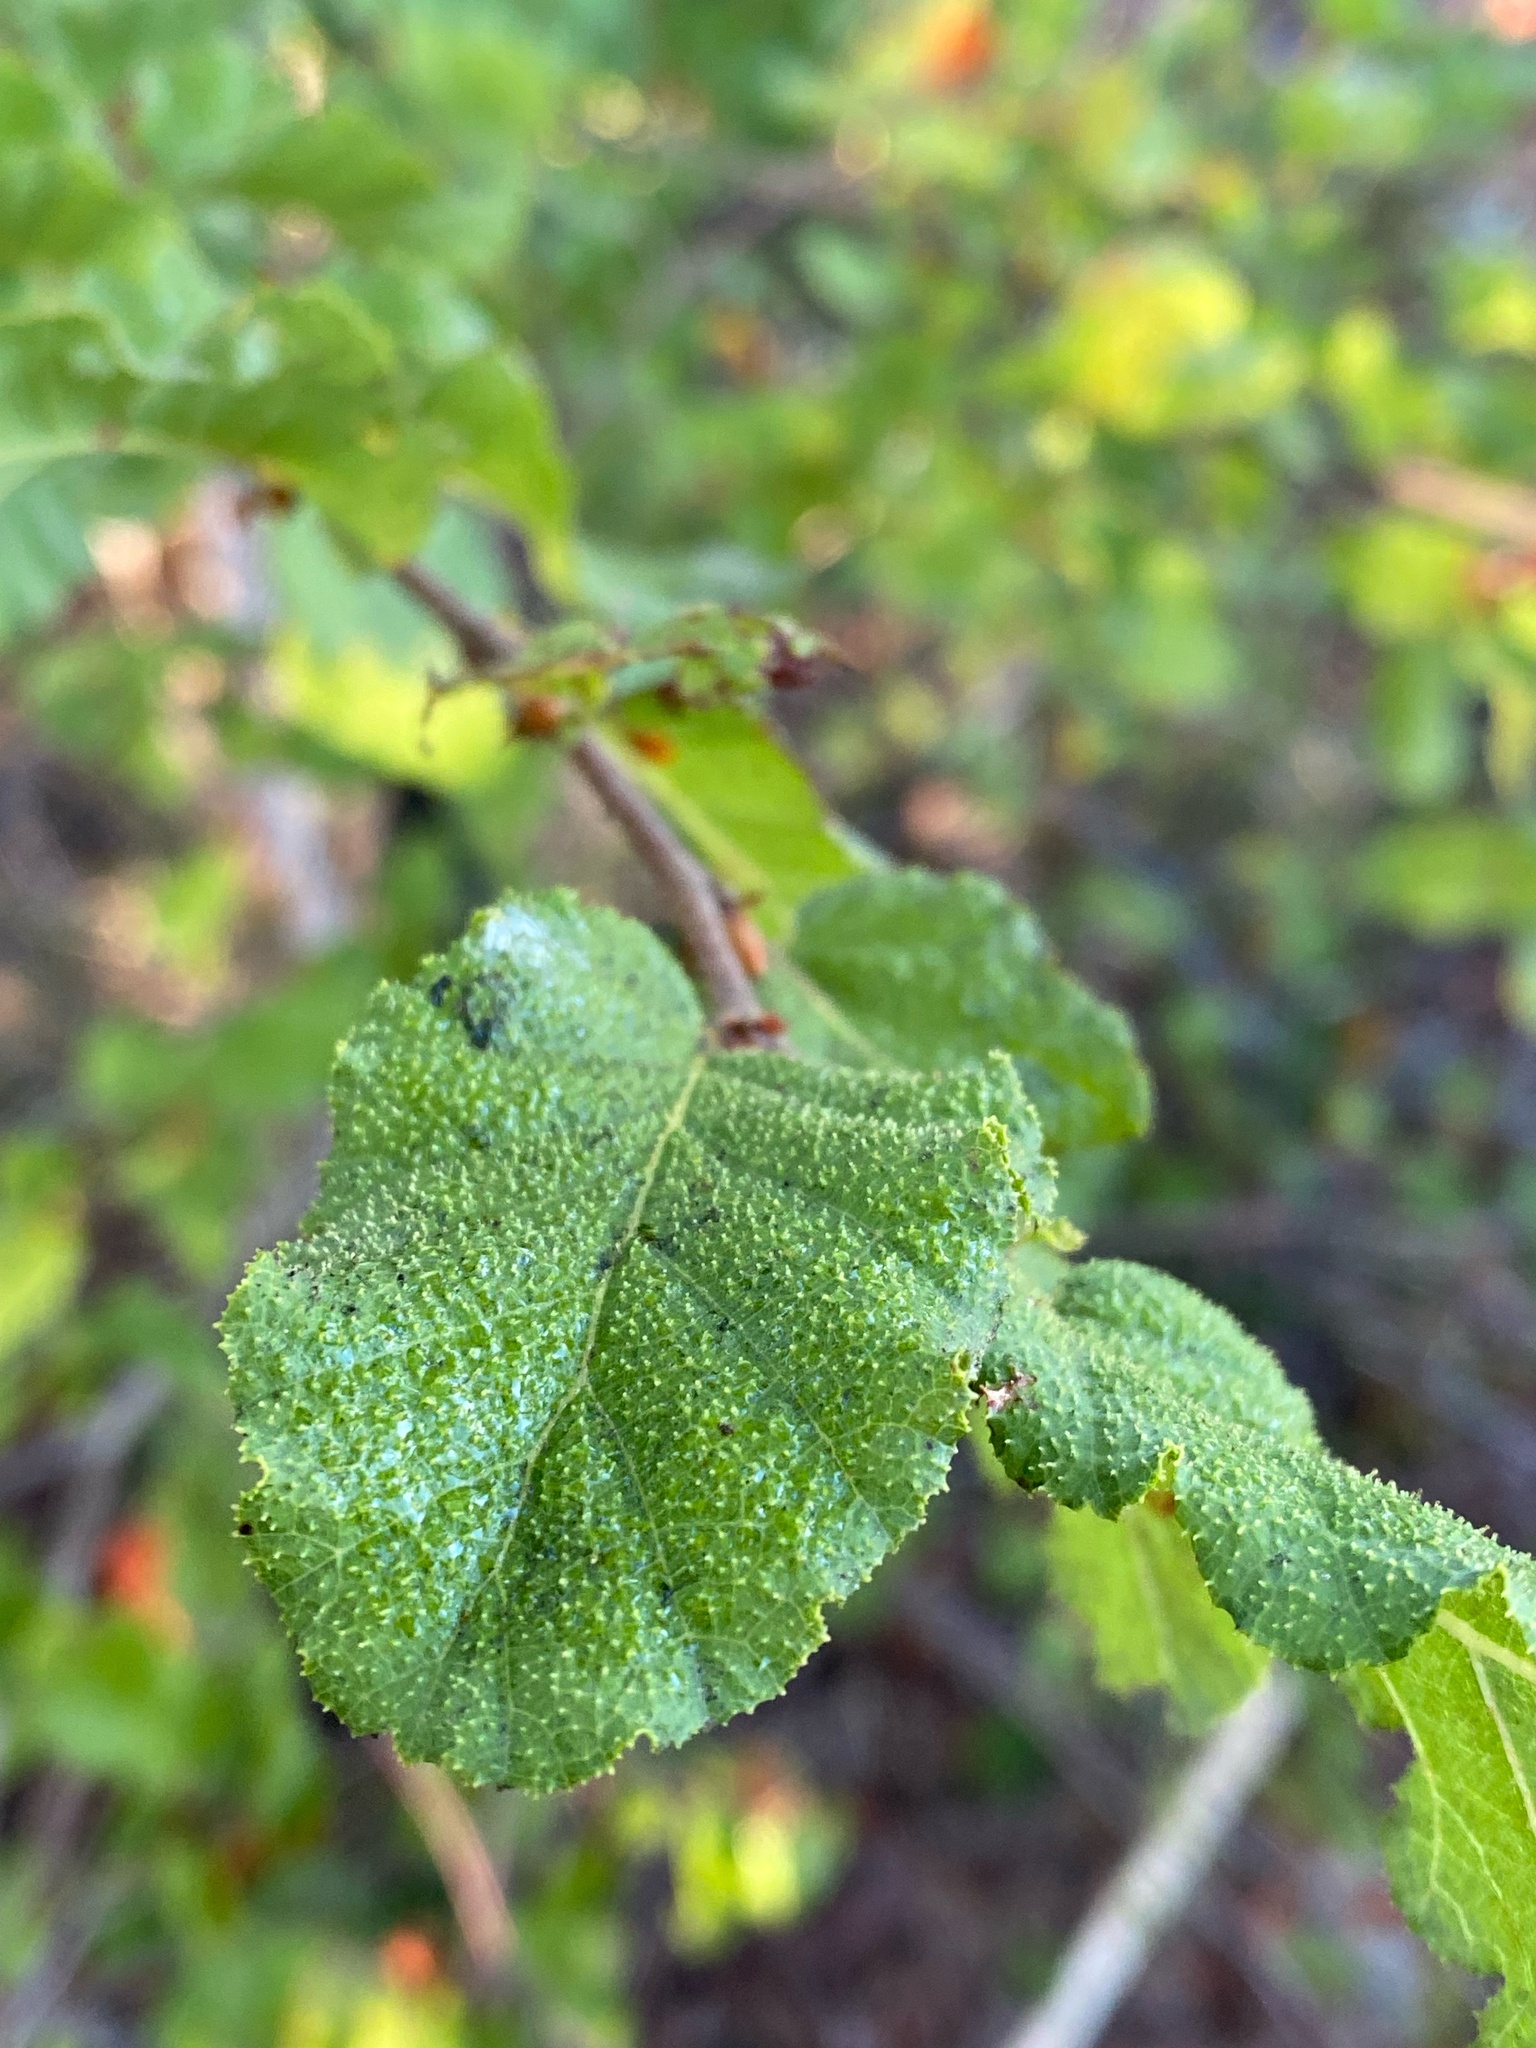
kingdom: Plantae
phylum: Tracheophyta
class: Magnoliopsida
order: Fagales
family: Nothofagaceae
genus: Nothofagus
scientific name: Nothofagus glauca
